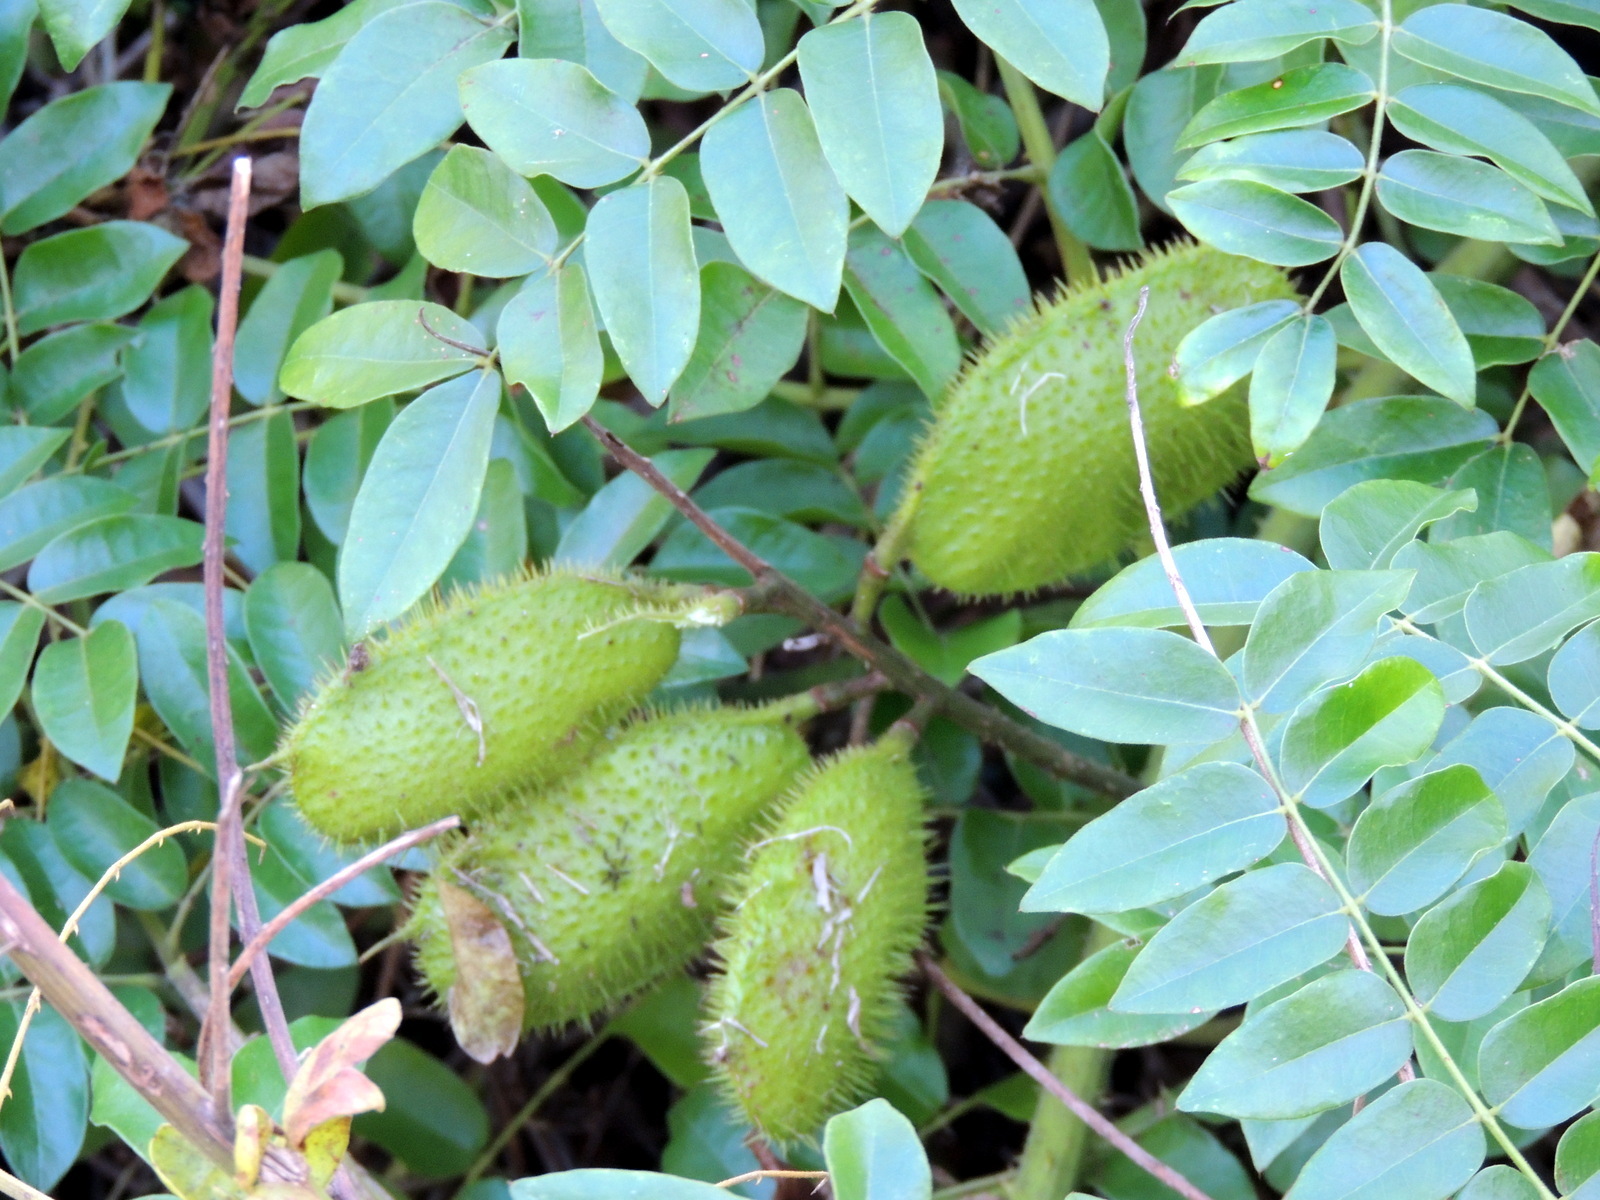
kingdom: Plantae
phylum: Tracheophyta
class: Magnoliopsida
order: Fabales
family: Fabaceae
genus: Guilandina
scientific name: Guilandina bonduc
